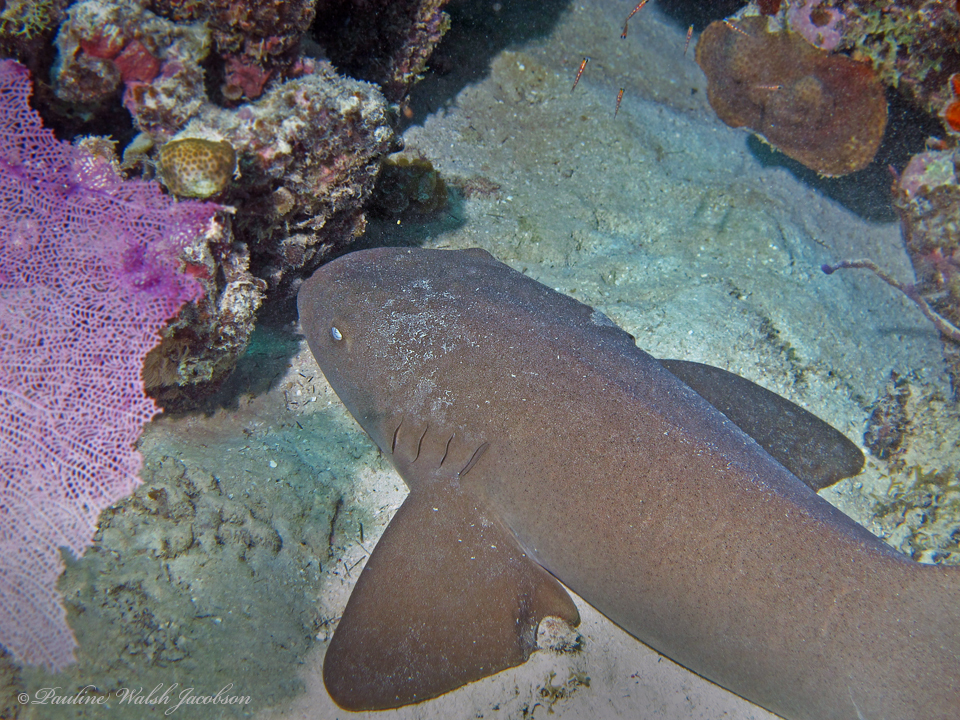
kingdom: Animalia
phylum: Chordata
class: Elasmobranchii
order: Orectolobiformes
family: Ginglymostomatidae
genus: Ginglymostoma
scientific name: Ginglymostoma cirratum
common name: Nurse shark
